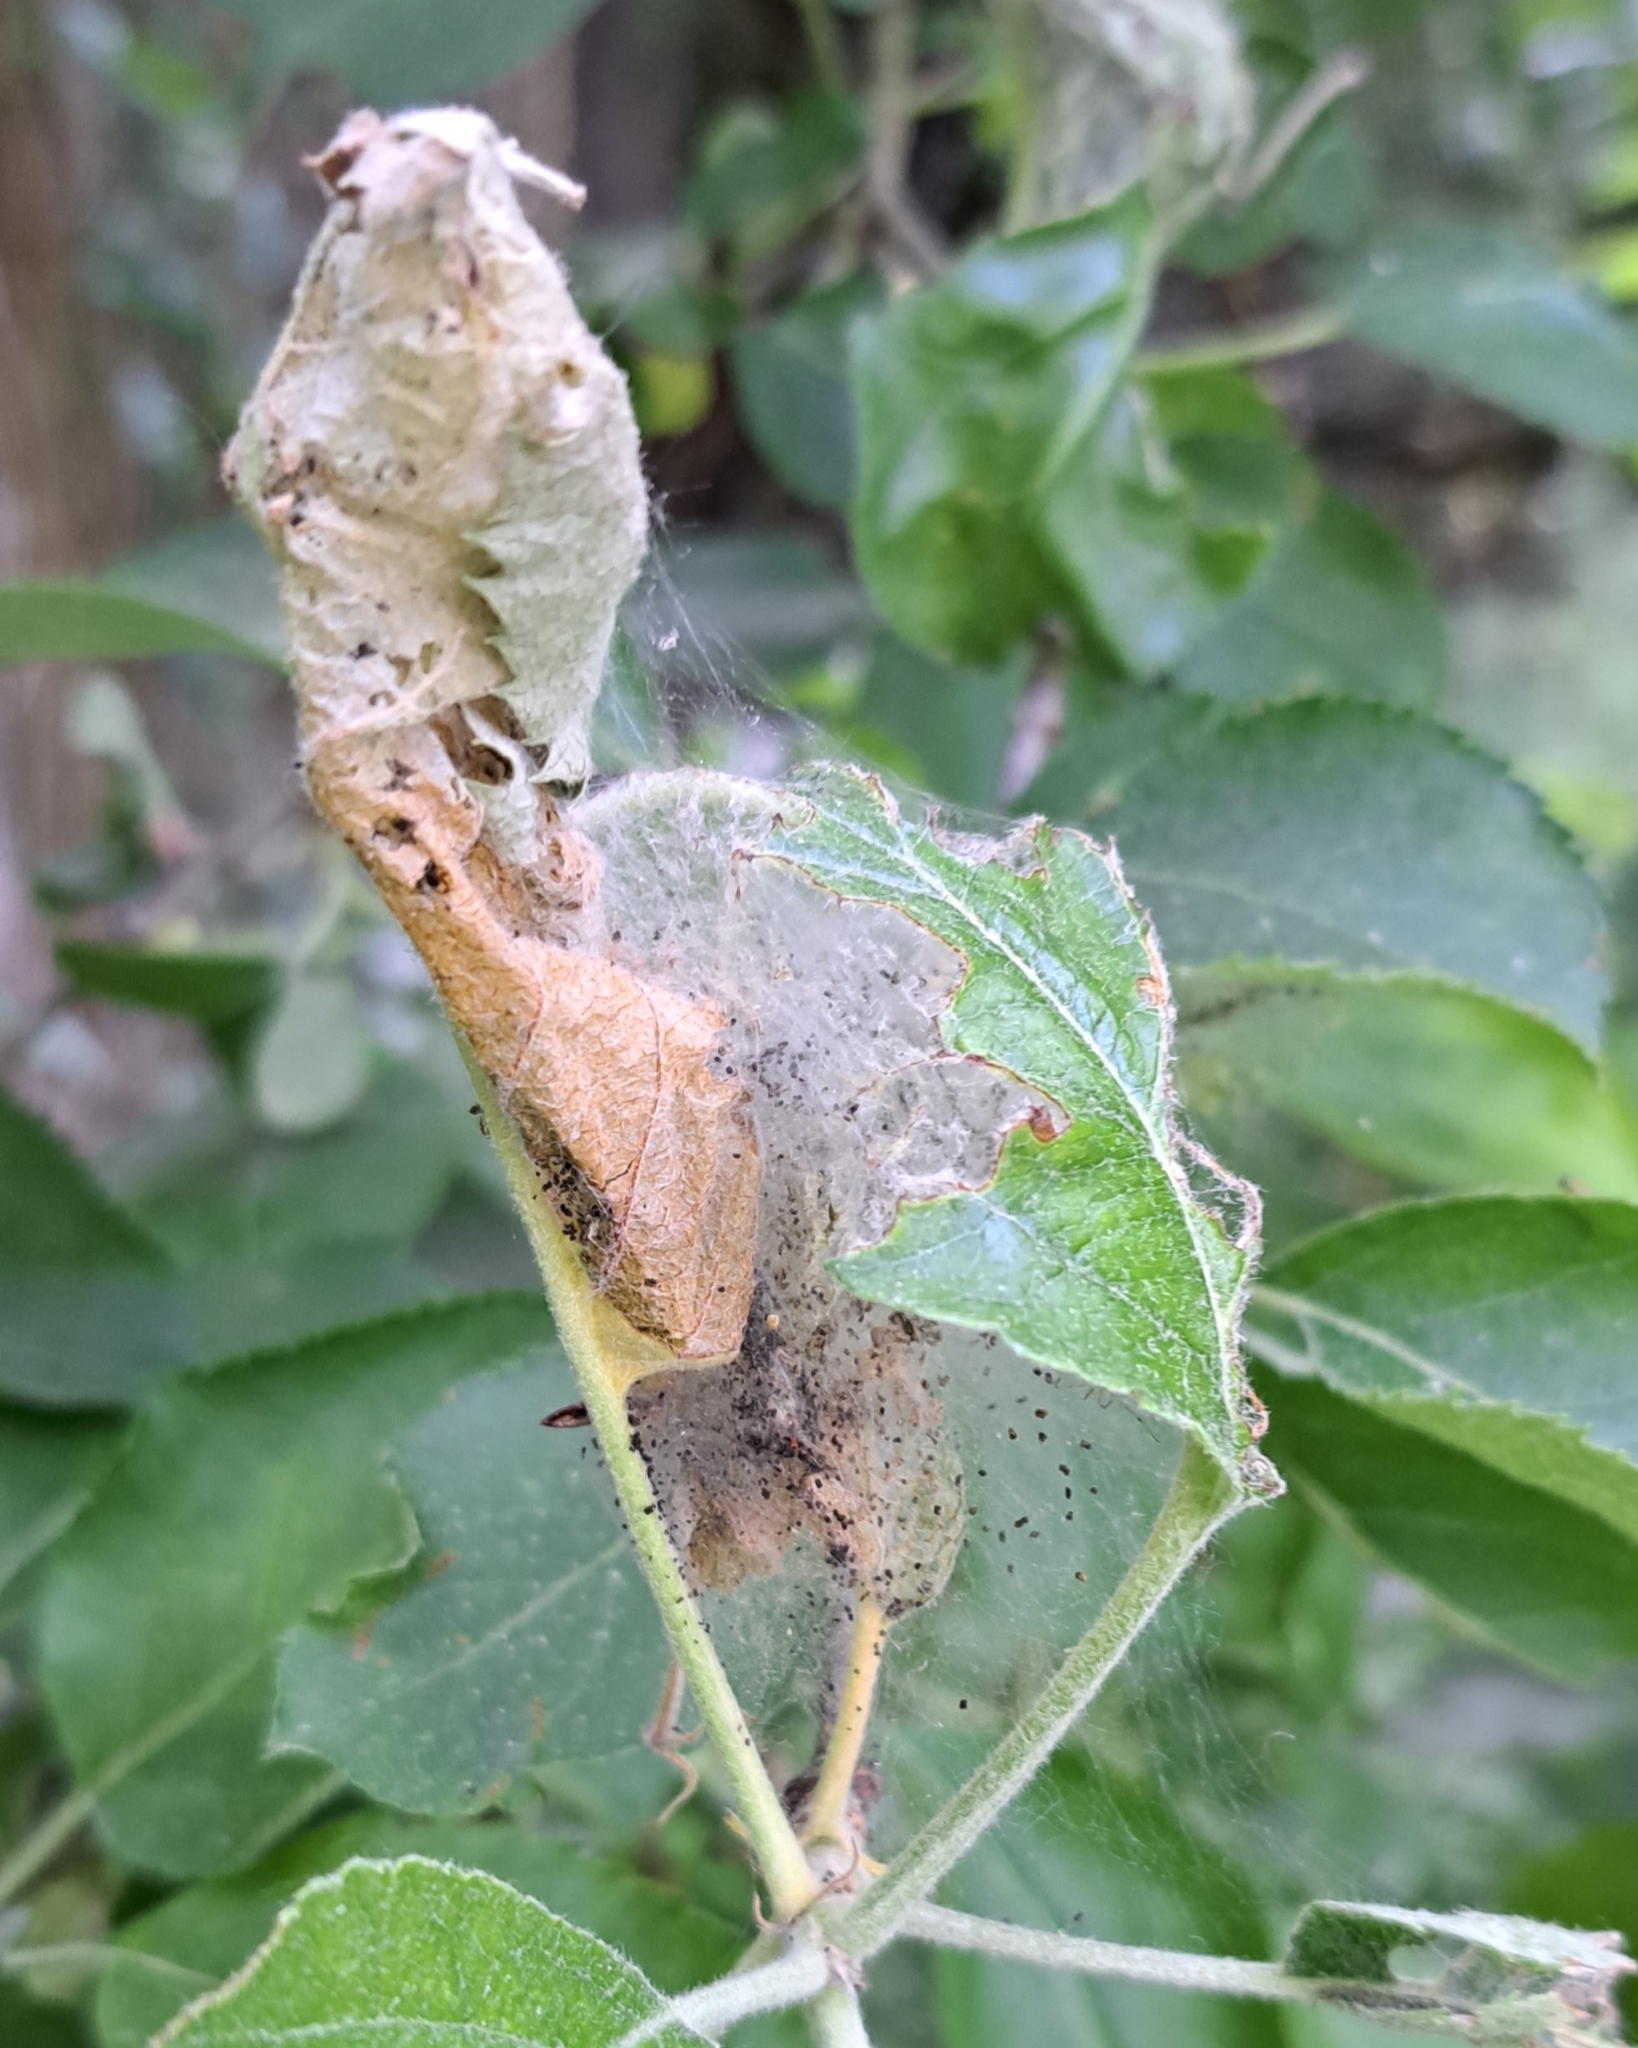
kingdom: Animalia
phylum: Arthropoda
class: Insecta
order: Lepidoptera
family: Yponomeutidae
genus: Yponomeuta
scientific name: Yponomeuta padella
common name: Orchard ermine
